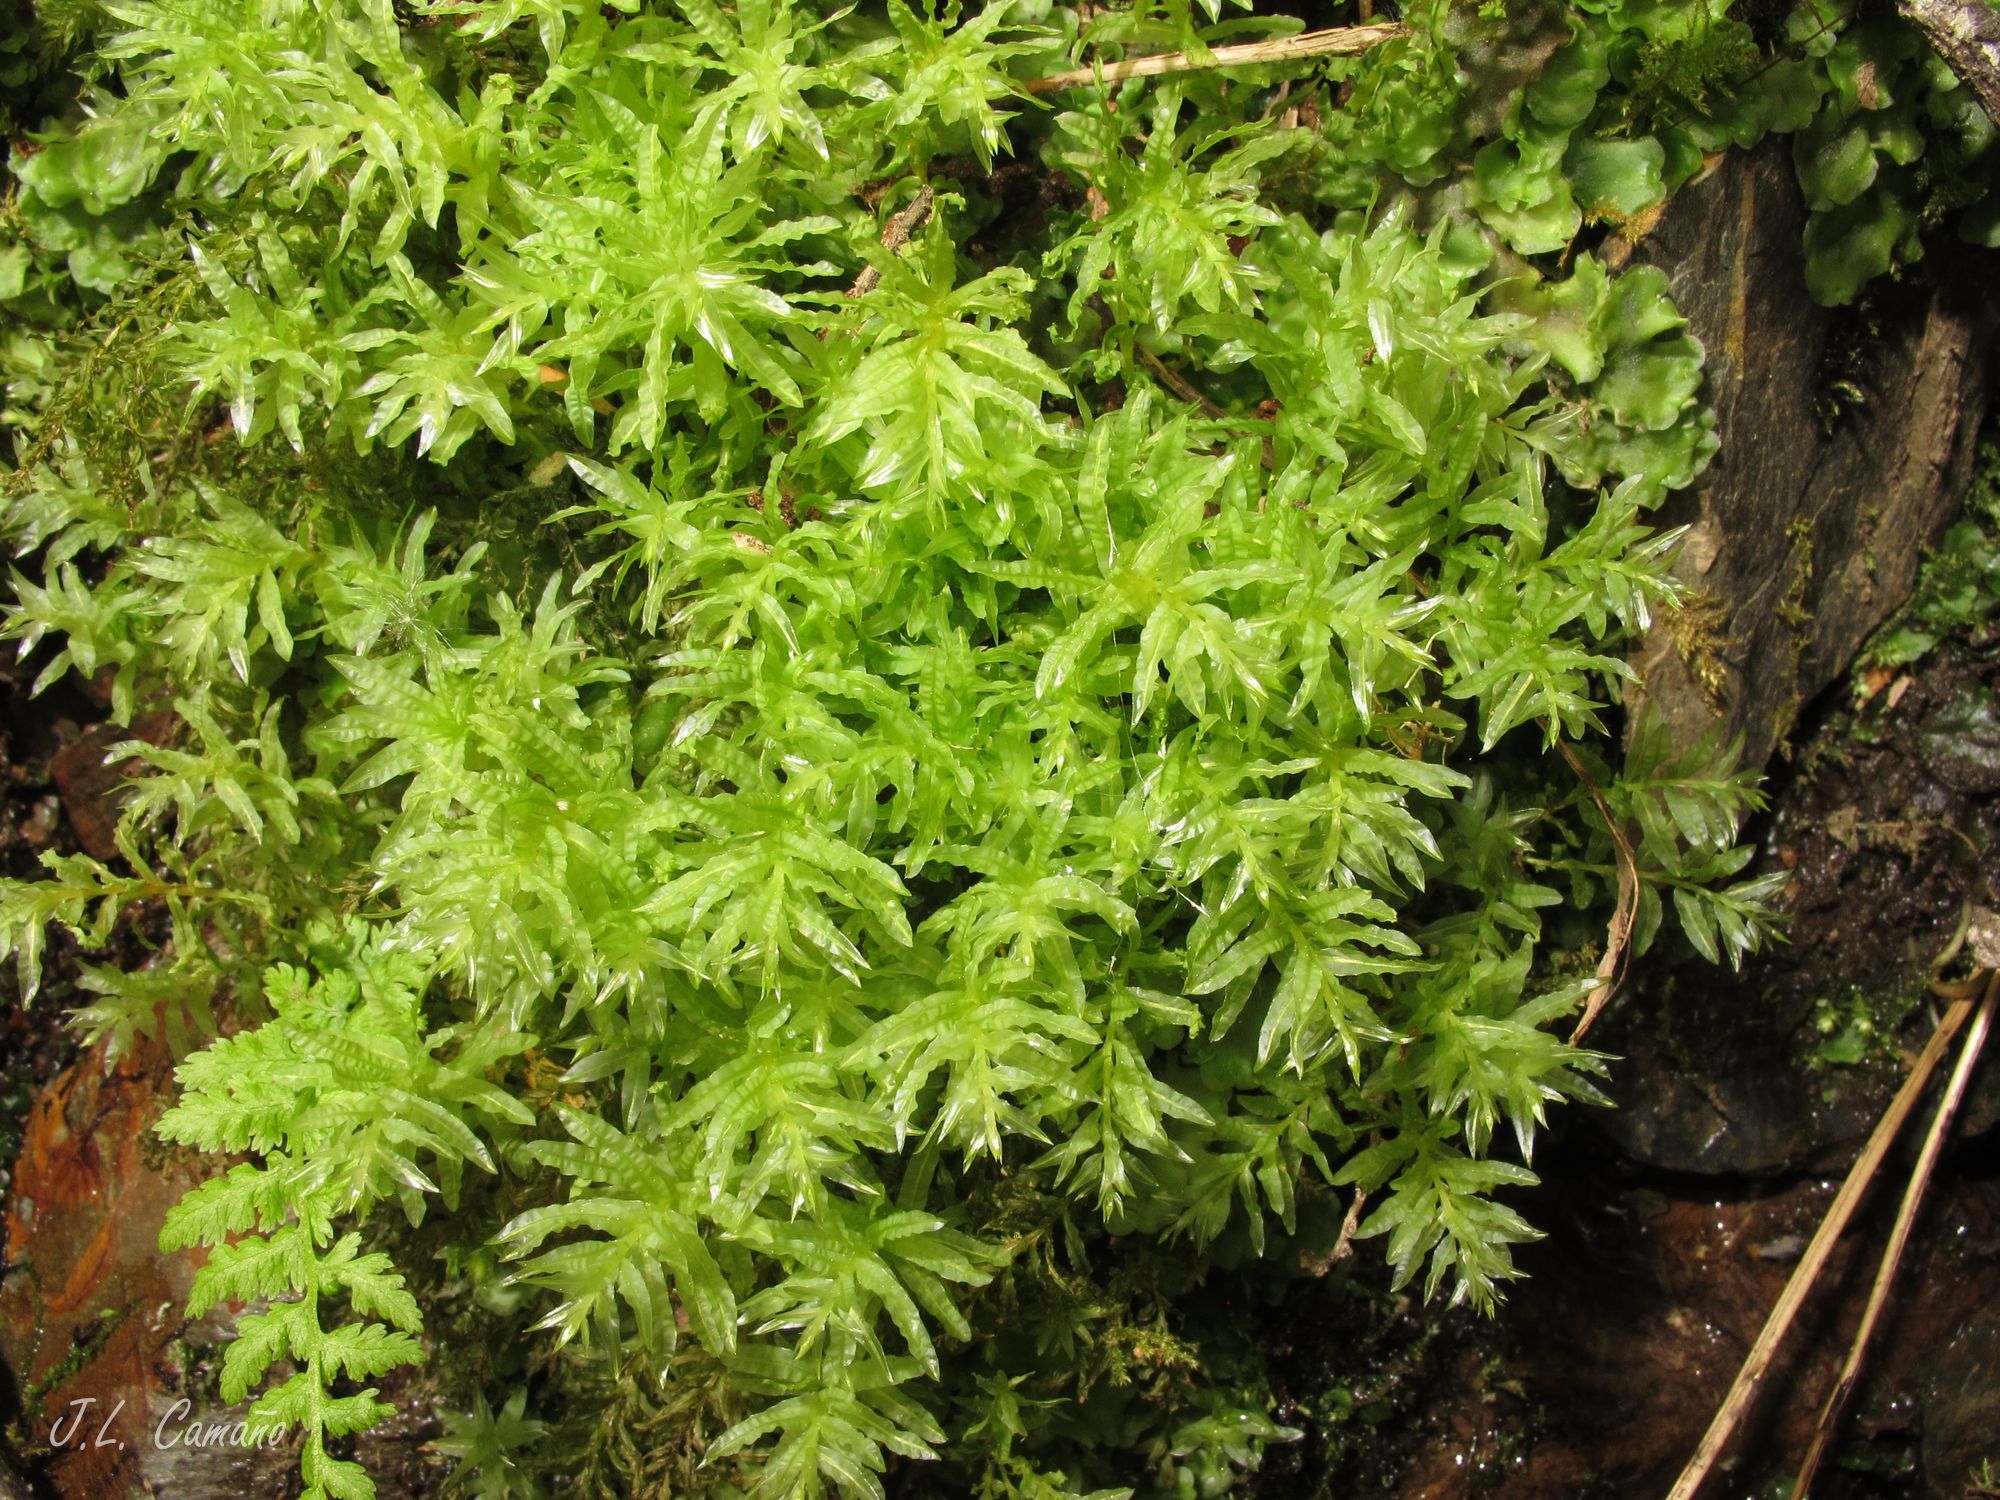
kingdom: Plantae
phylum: Bryophyta
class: Bryopsida
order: Bryales
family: Mniaceae
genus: Plagiomnium
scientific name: Plagiomnium undulatum
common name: Hart's-tongue thyme-moss
